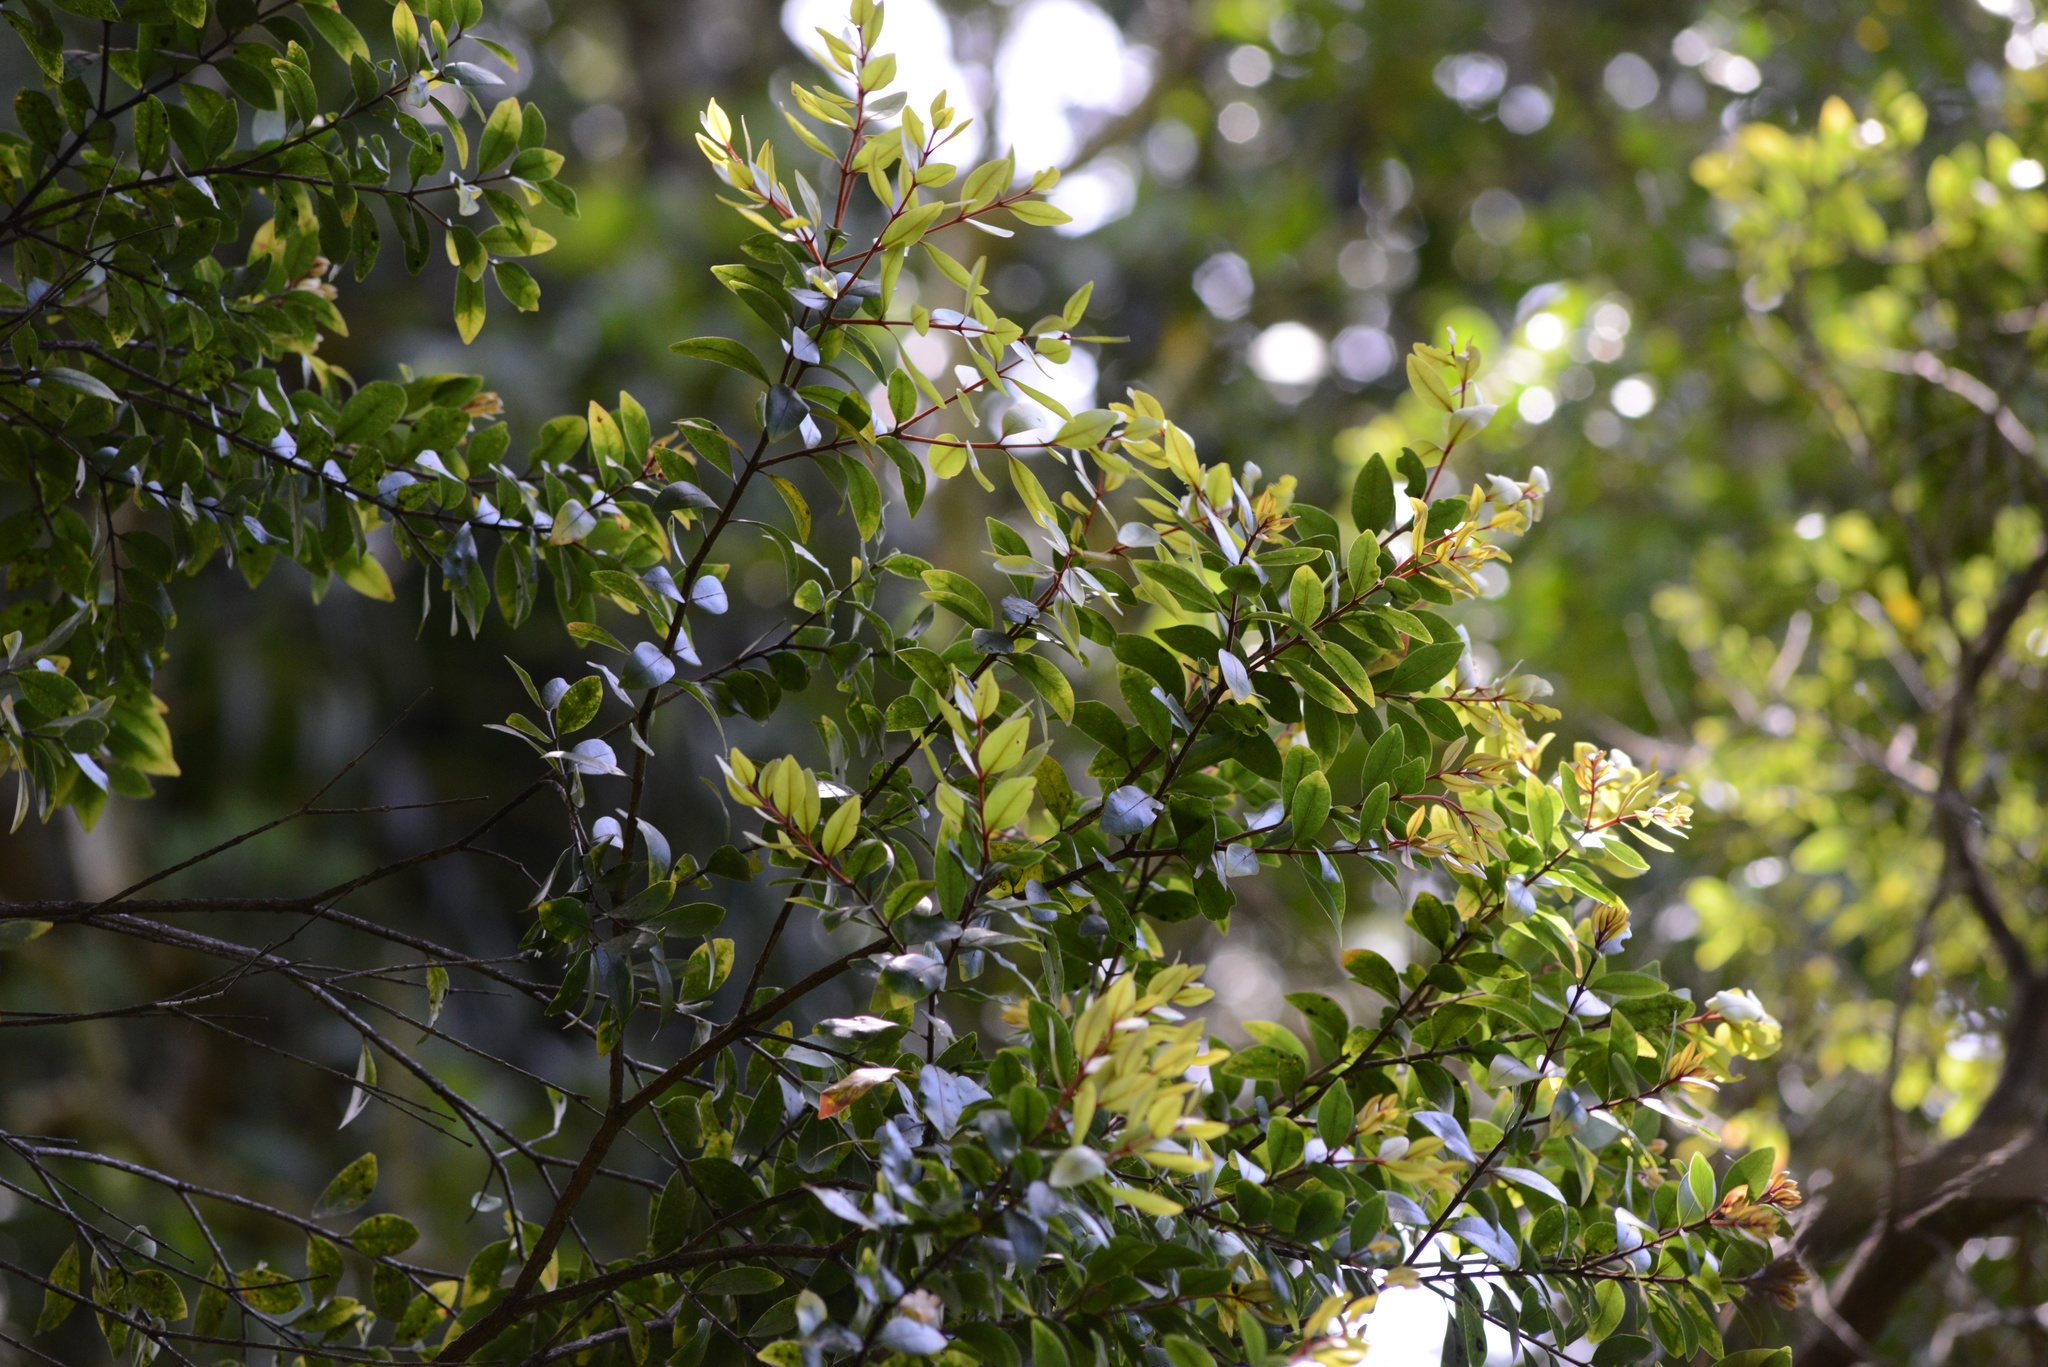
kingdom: Plantae
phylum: Tracheophyta
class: Magnoliopsida
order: Myrtales
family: Myrtaceae
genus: Metrosideros
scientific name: Metrosideros robusta
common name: Northern rata
